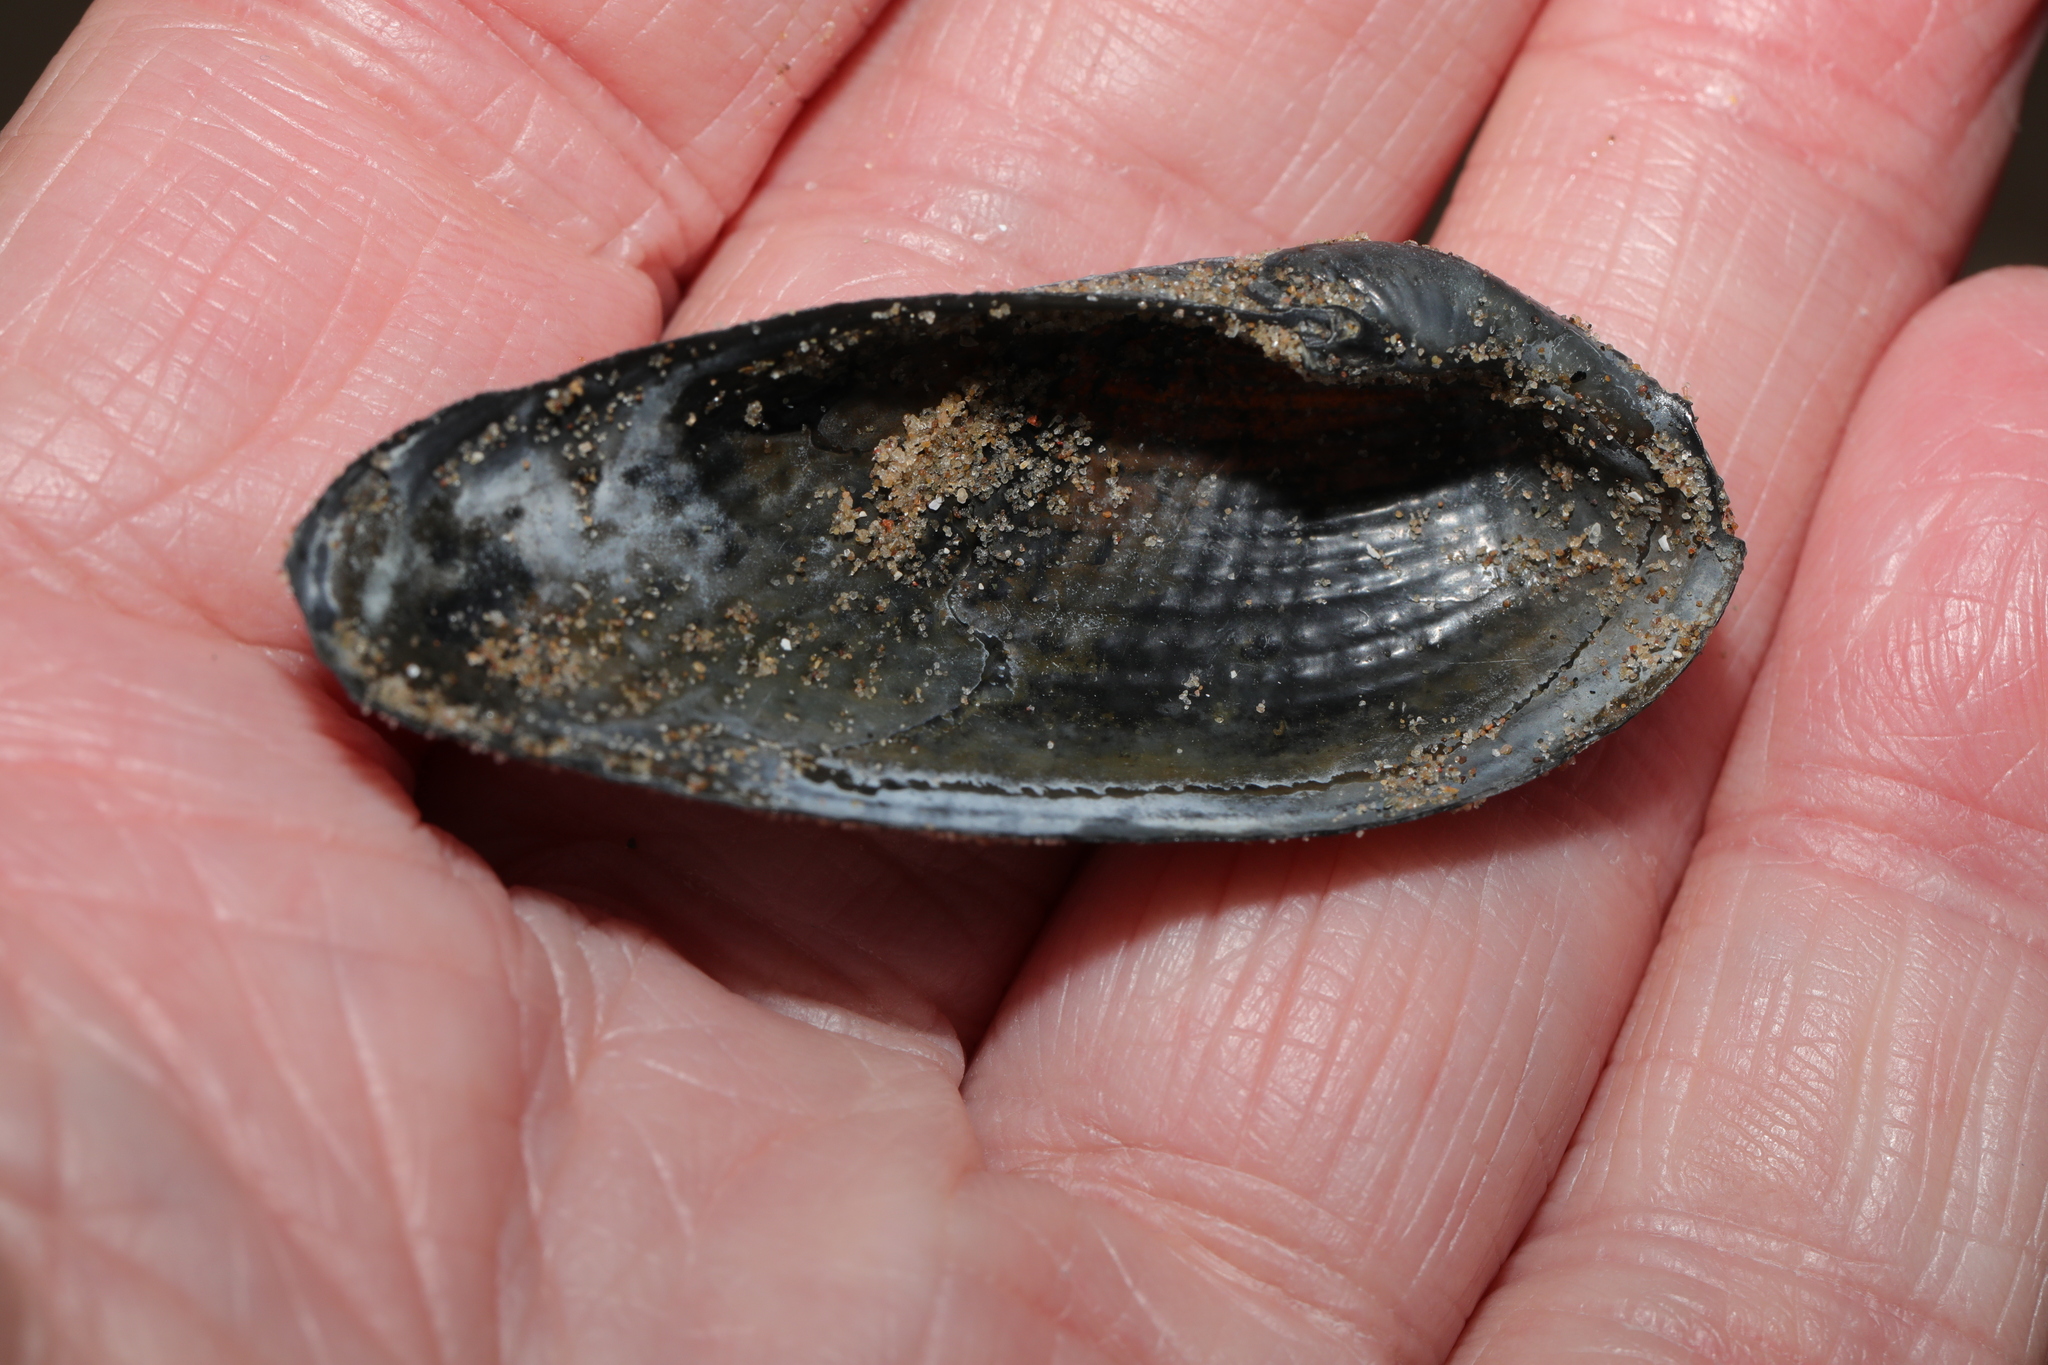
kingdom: Animalia
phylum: Mollusca
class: Bivalvia
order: Myida
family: Pholadidae
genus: Barnea
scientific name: Barnea candida
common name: White piddock
